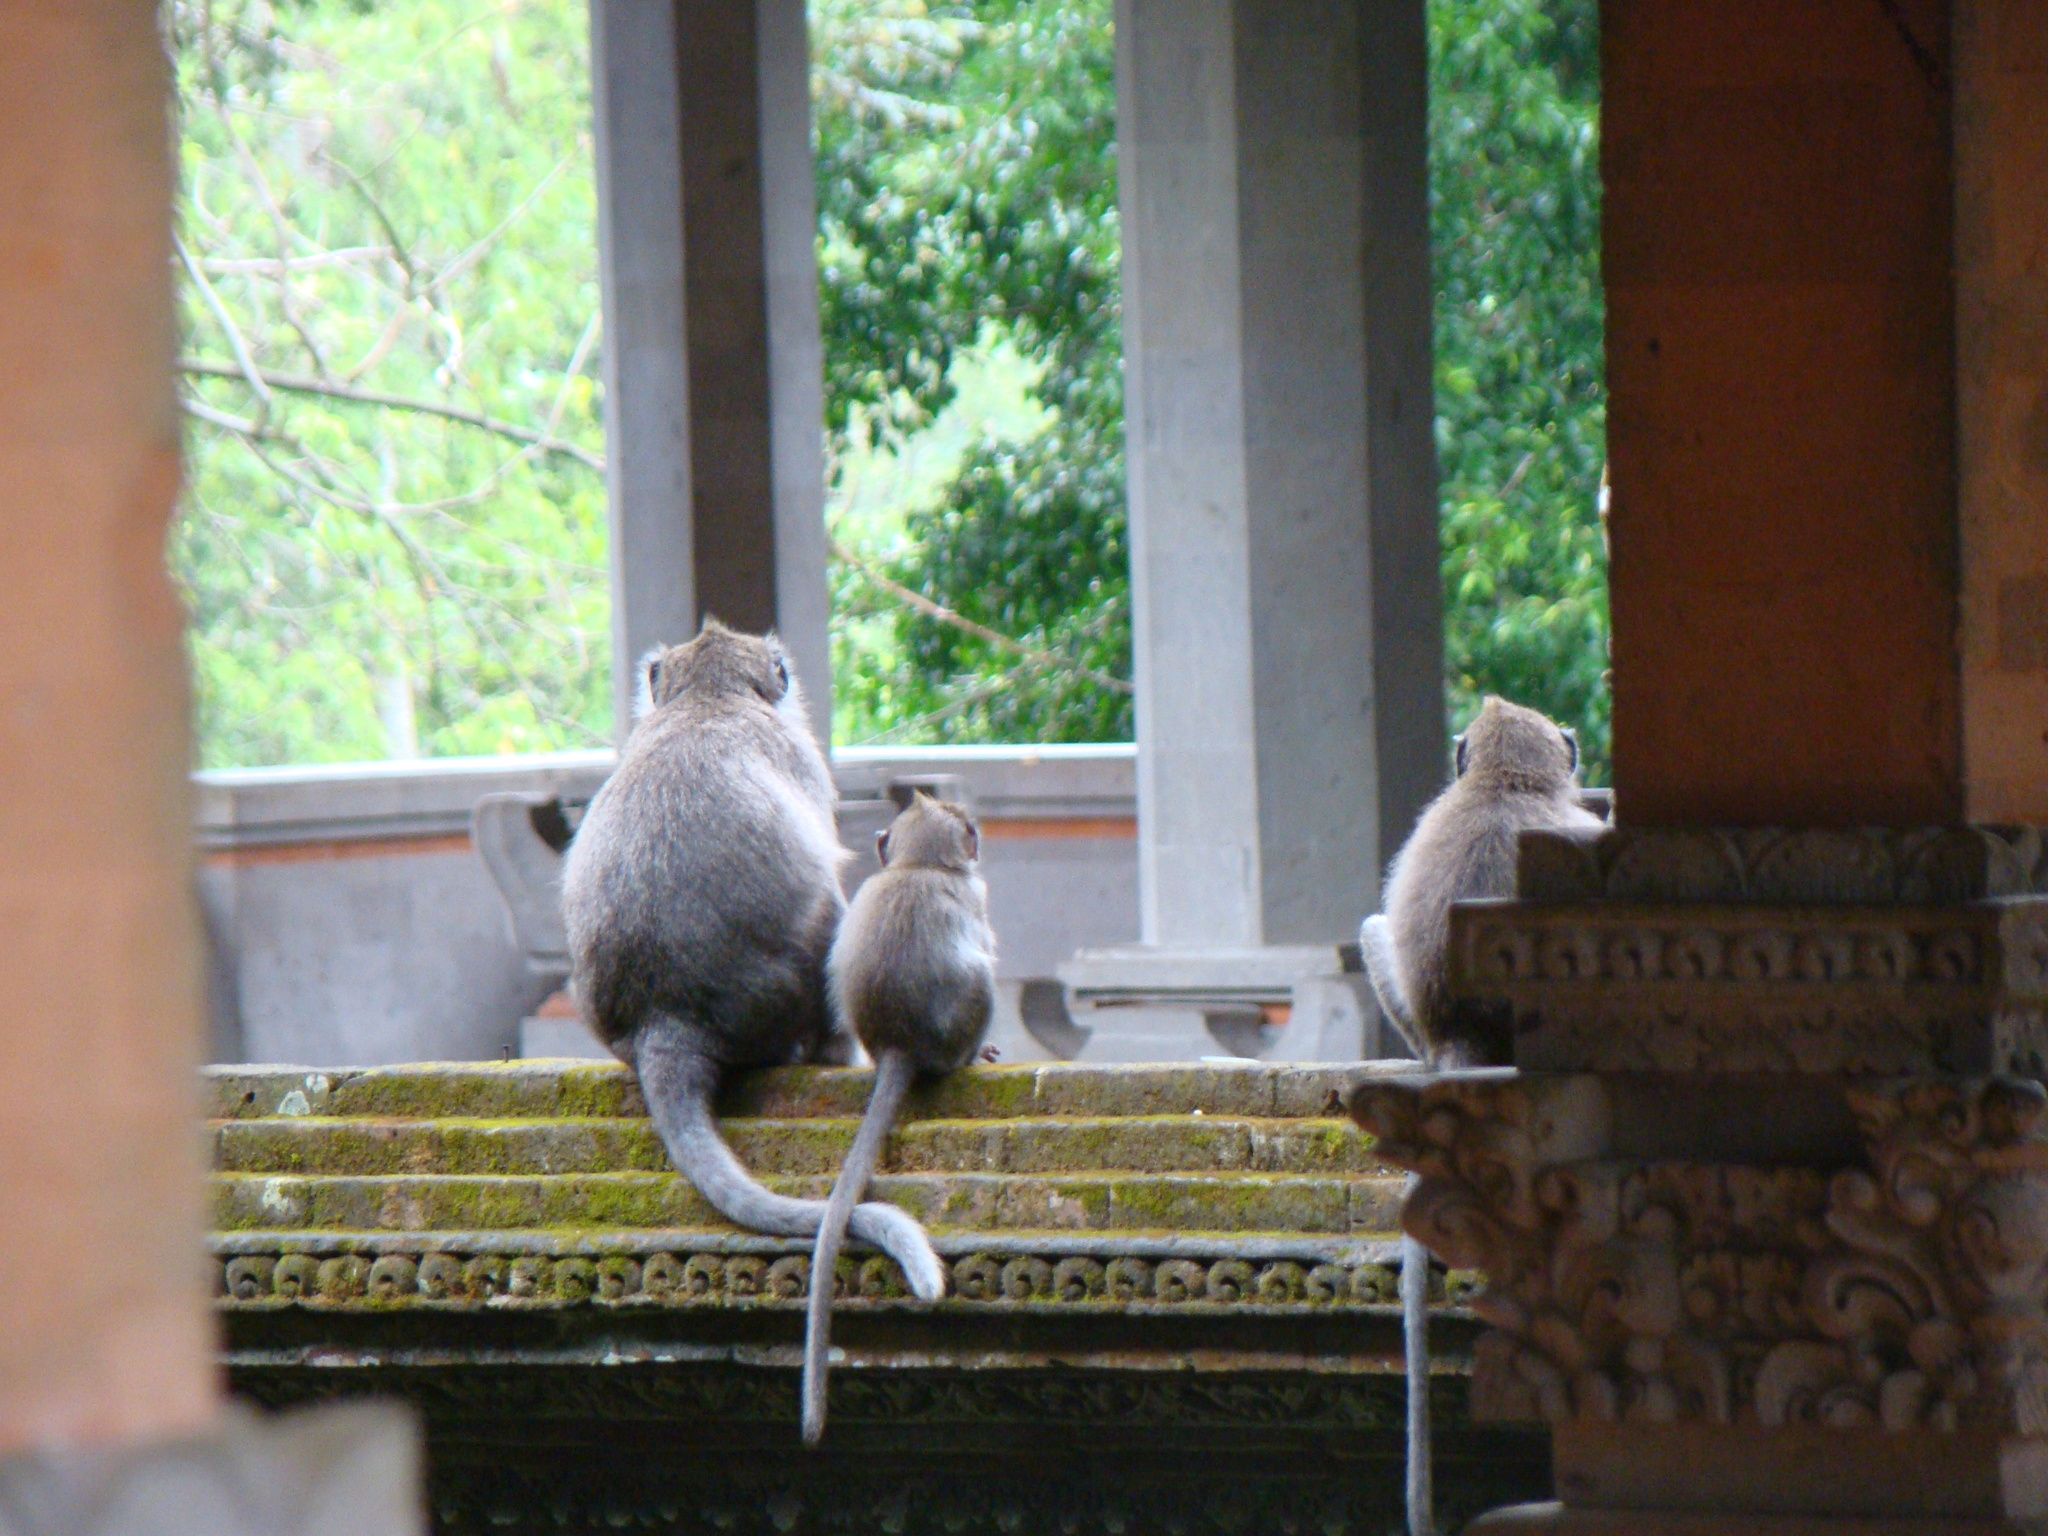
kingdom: Animalia
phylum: Chordata
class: Mammalia
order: Primates
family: Cercopithecidae
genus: Macaca
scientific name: Macaca fascicularis
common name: Crab-eating macaque
